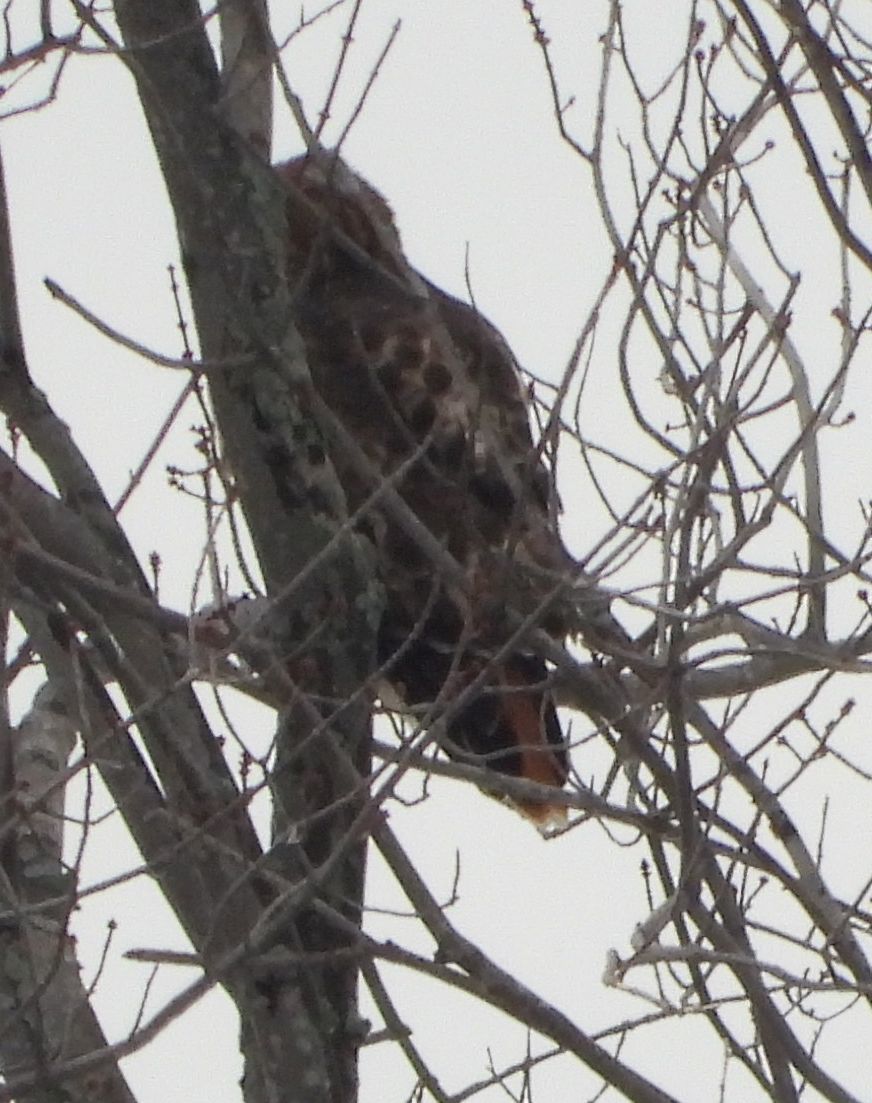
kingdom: Animalia
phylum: Chordata
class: Aves
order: Accipitriformes
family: Accipitridae
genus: Buteo
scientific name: Buteo jamaicensis
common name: Red-tailed hawk
